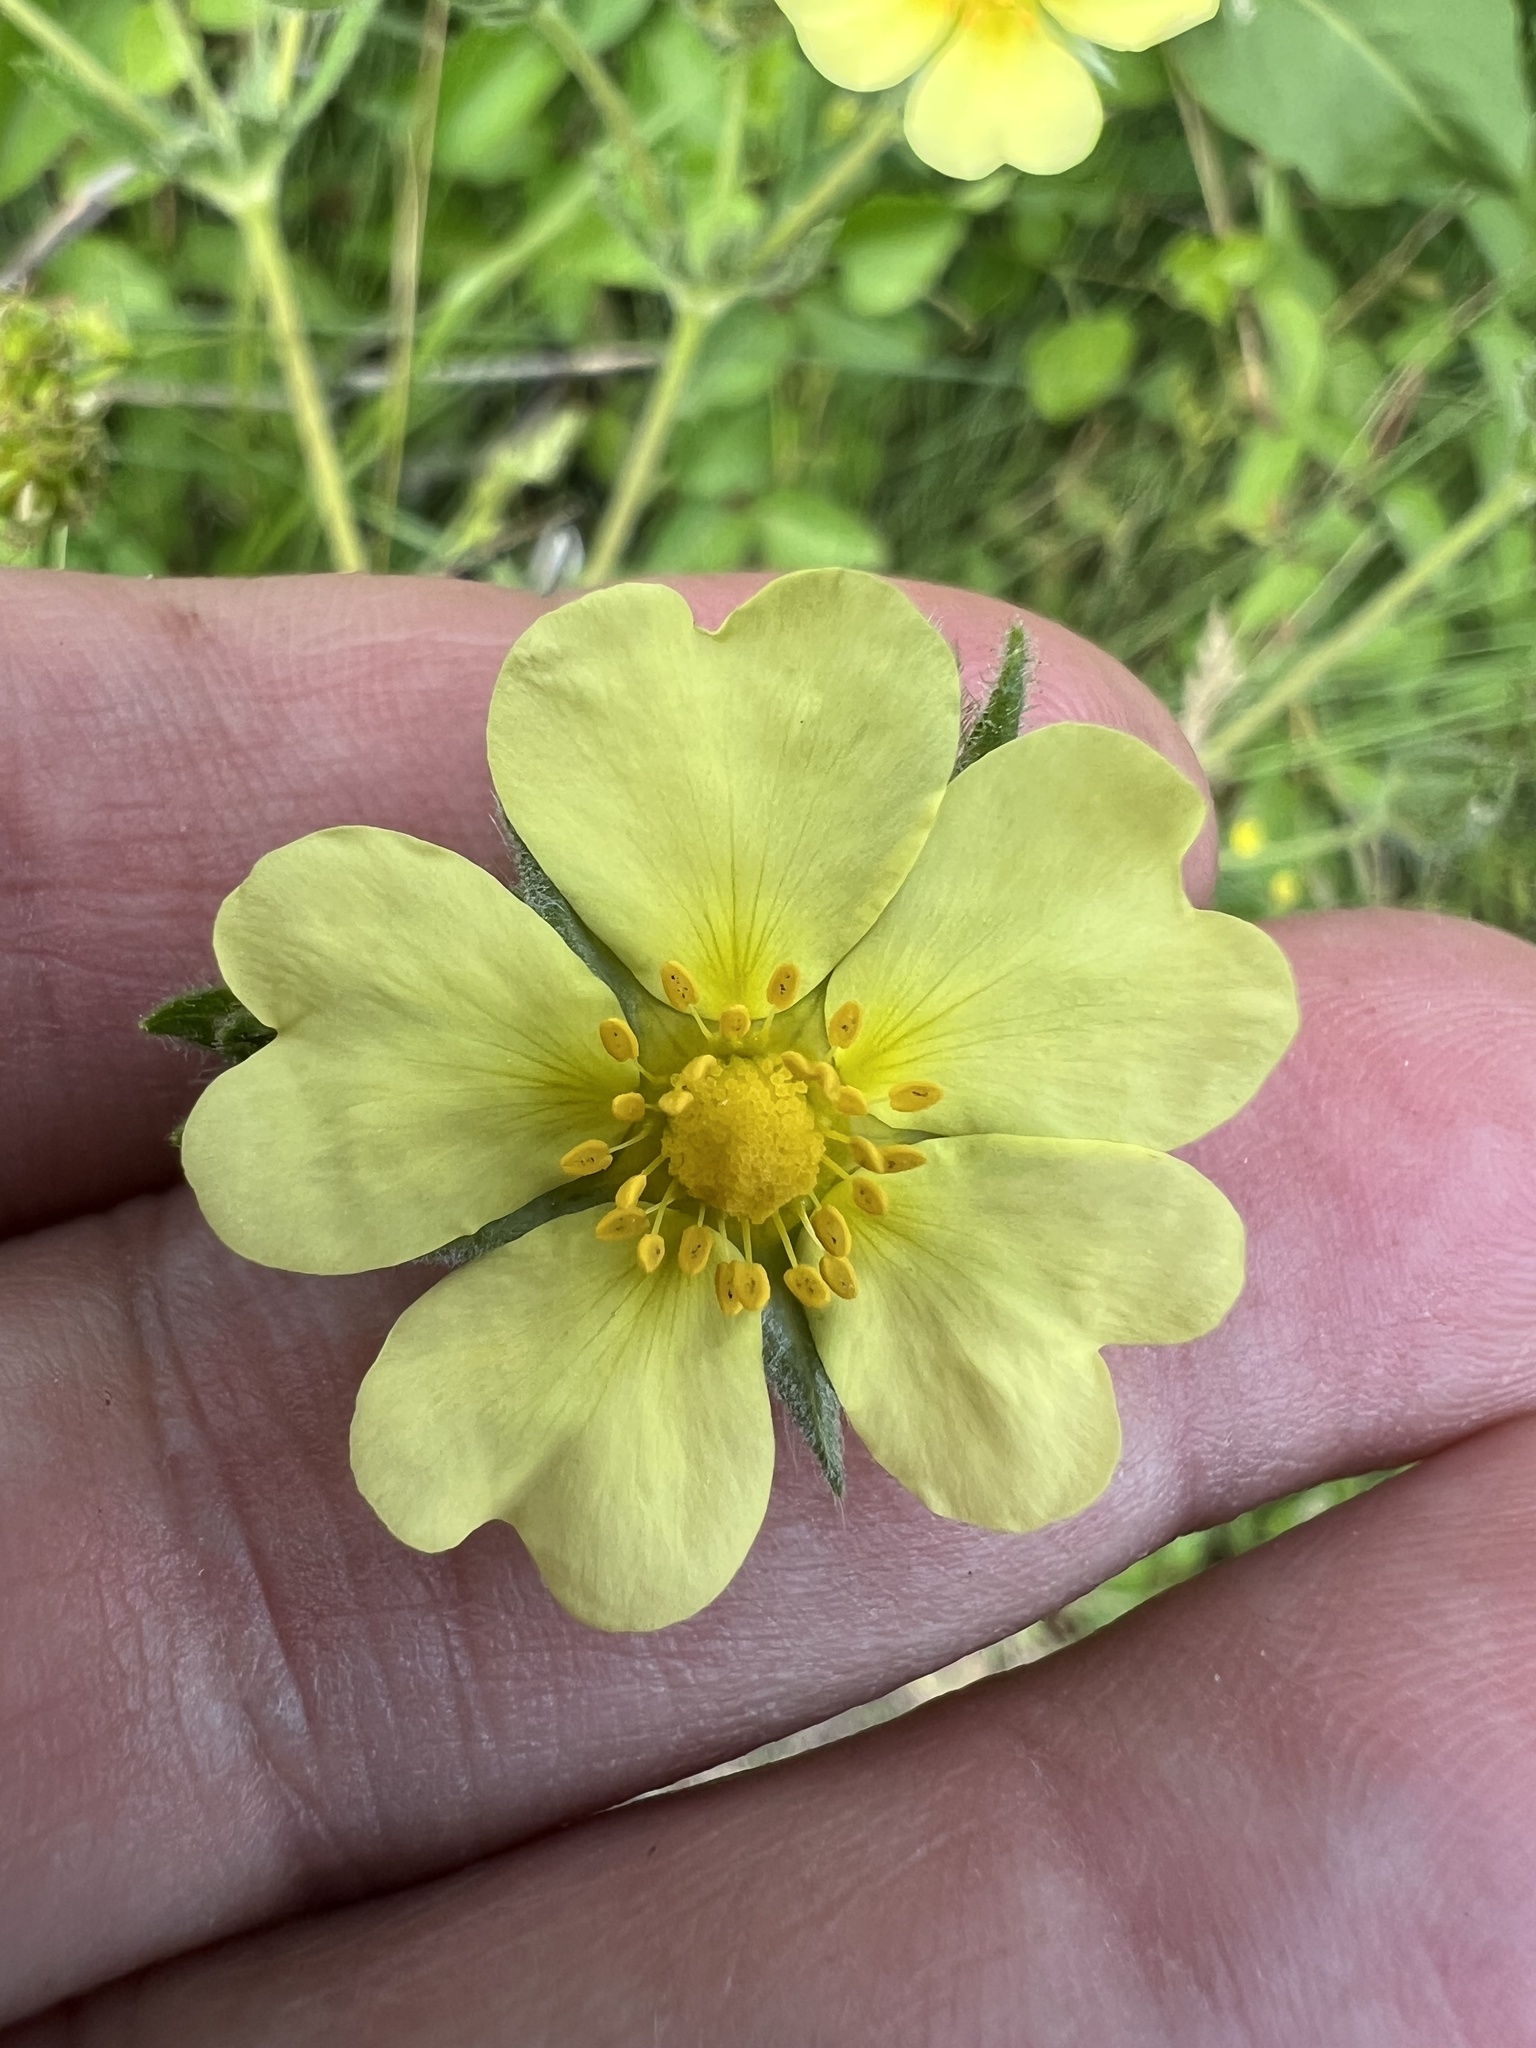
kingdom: Plantae
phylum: Tracheophyta
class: Magnoliopsida
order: Rosales
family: Rosaceae
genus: Potentilla
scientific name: Potentilla recta
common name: Sulphur cinquefoil
